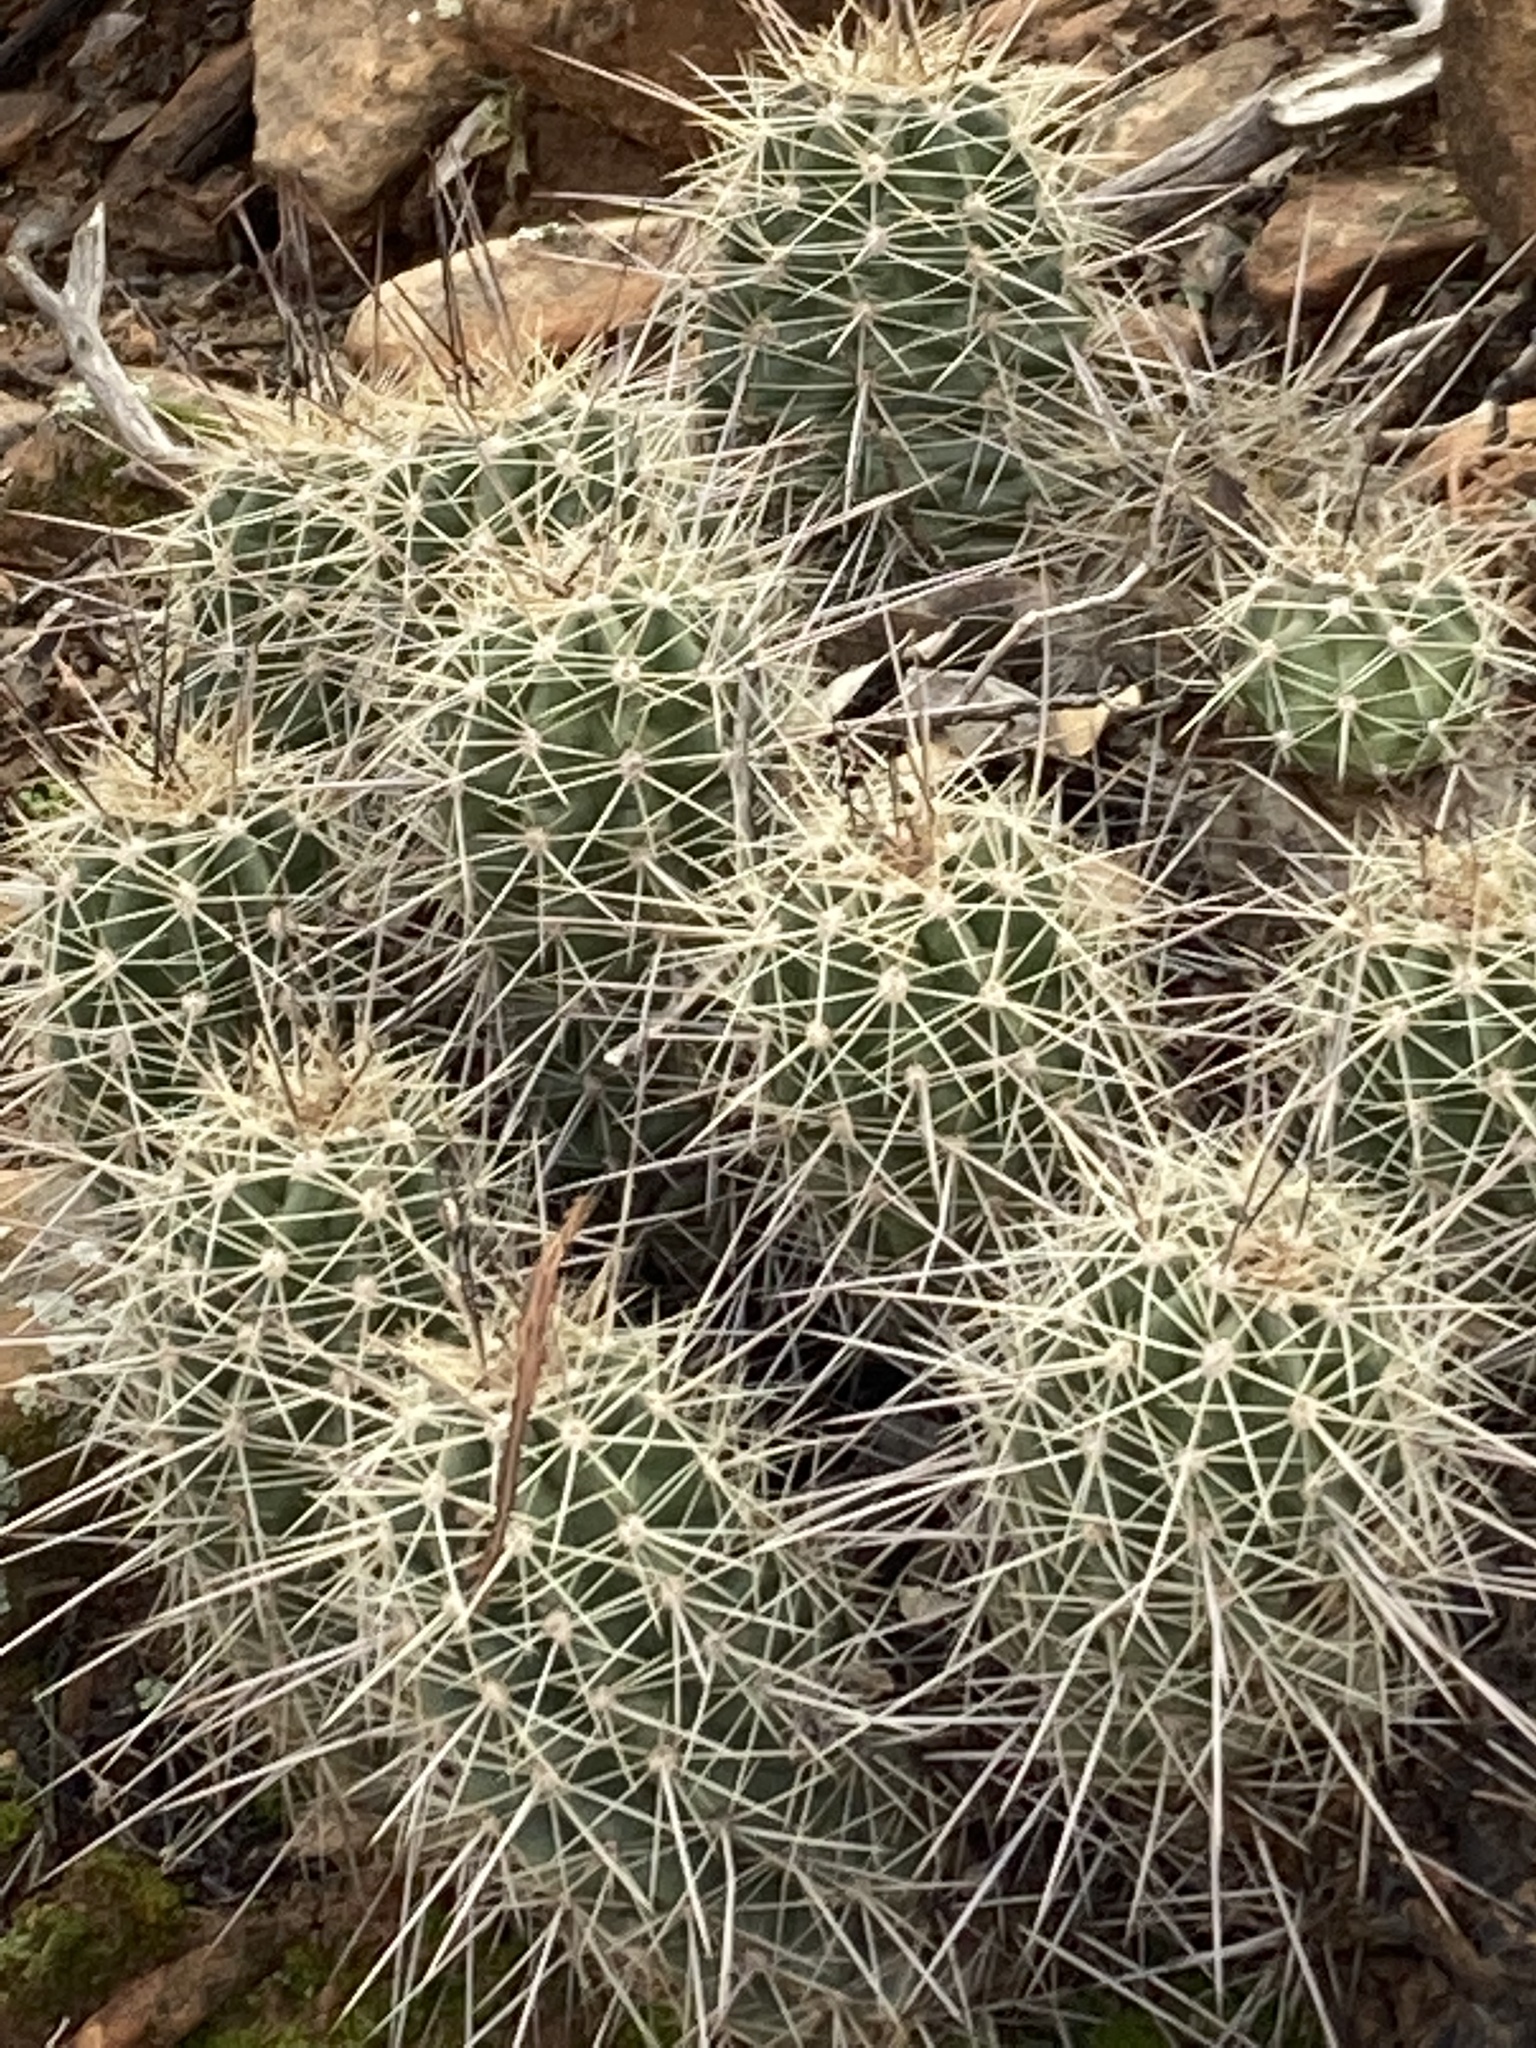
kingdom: Plantae
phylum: Tracheophyta
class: Magnoliopsida
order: Caryophyllales
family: Cactaceae
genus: Echinocereus
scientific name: Echinocereus bakeri
